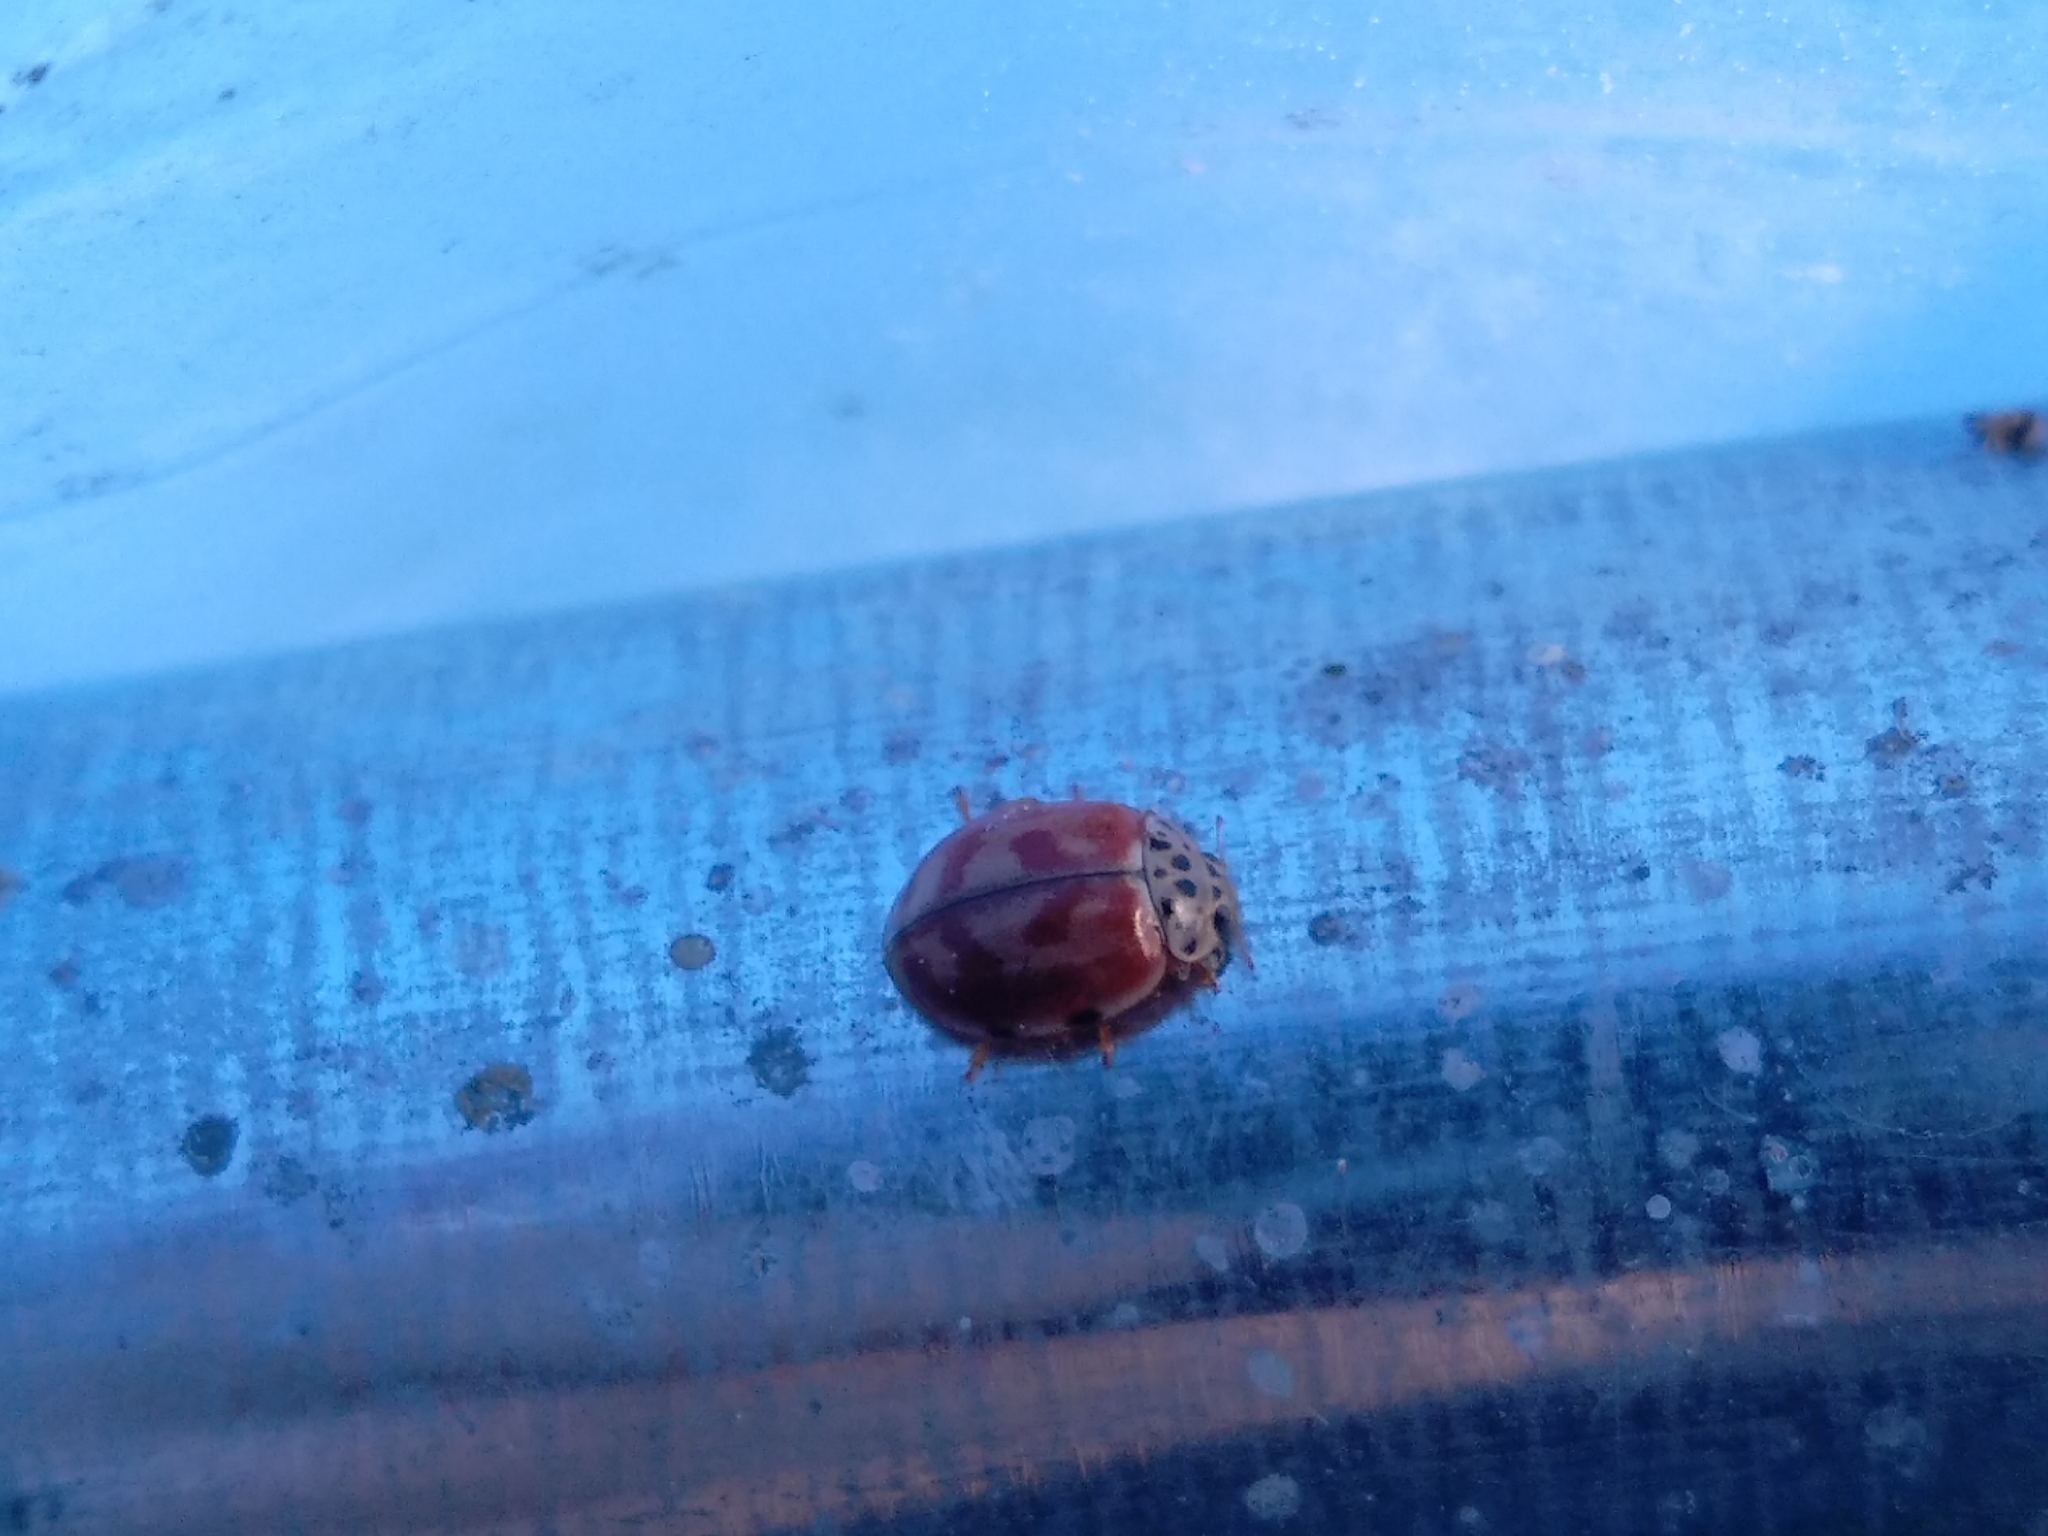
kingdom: Animalia
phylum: Arthropoda
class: Insecta
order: Coleoptera
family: Coccinellidae
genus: Harmonia
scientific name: Harmonia quadripunctata
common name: Cream-streaked ladybird
